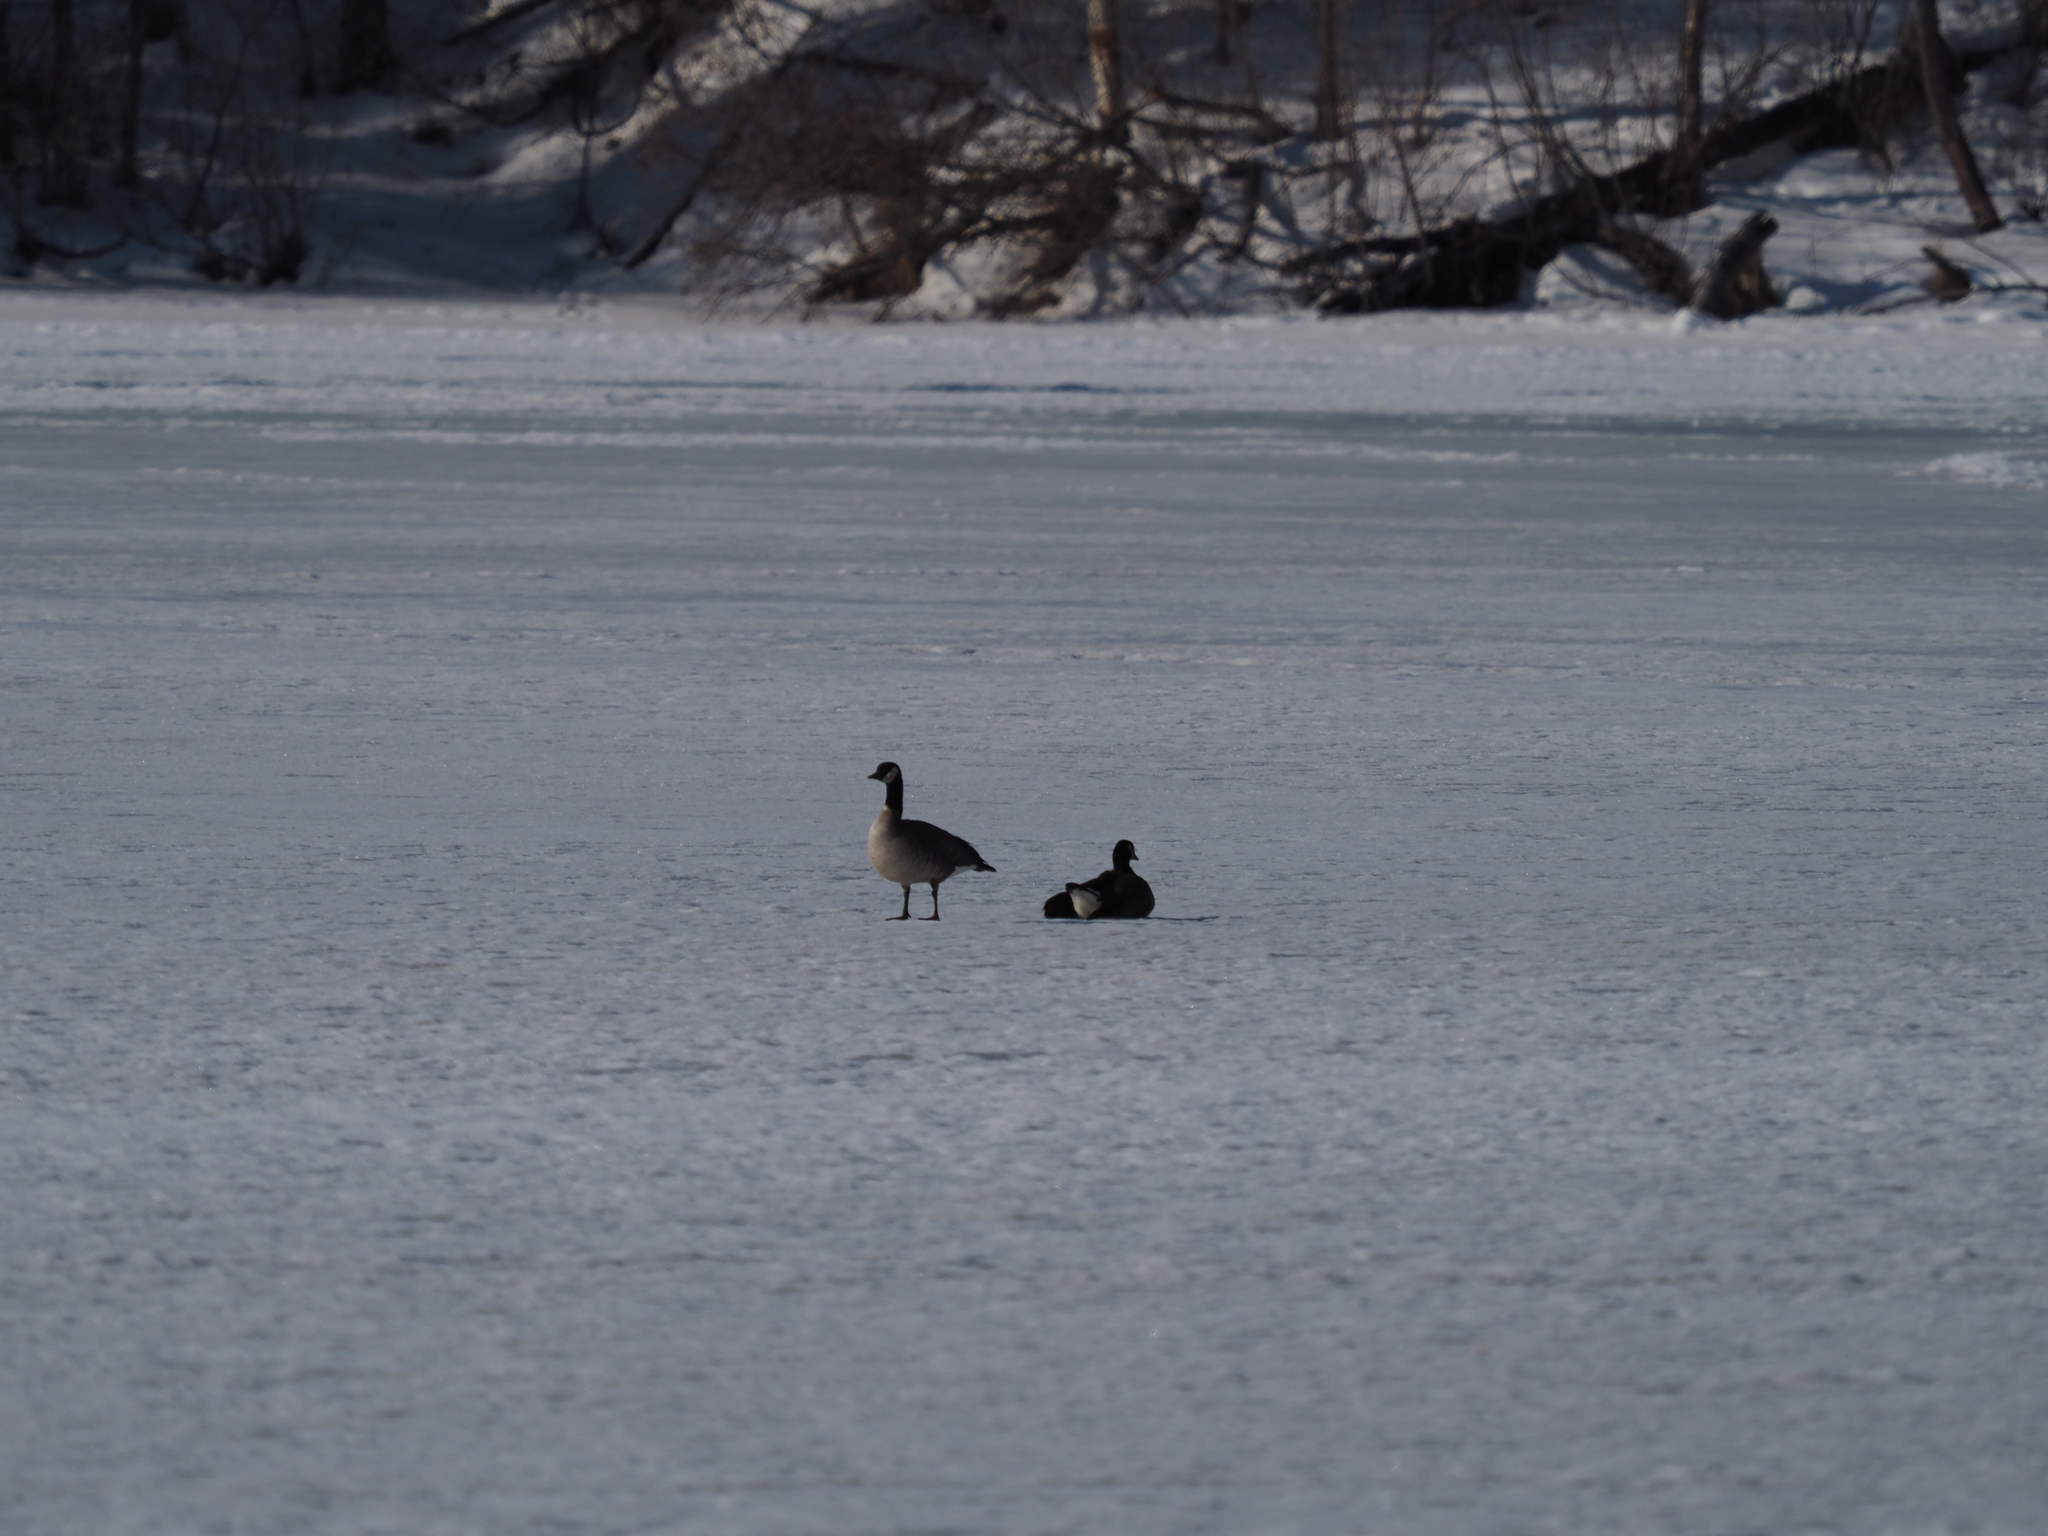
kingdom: Animalia
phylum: Chordata
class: Aves
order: Anseriformes
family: Anatidae
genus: Branta
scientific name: Branta canadensis
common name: Canada goose
